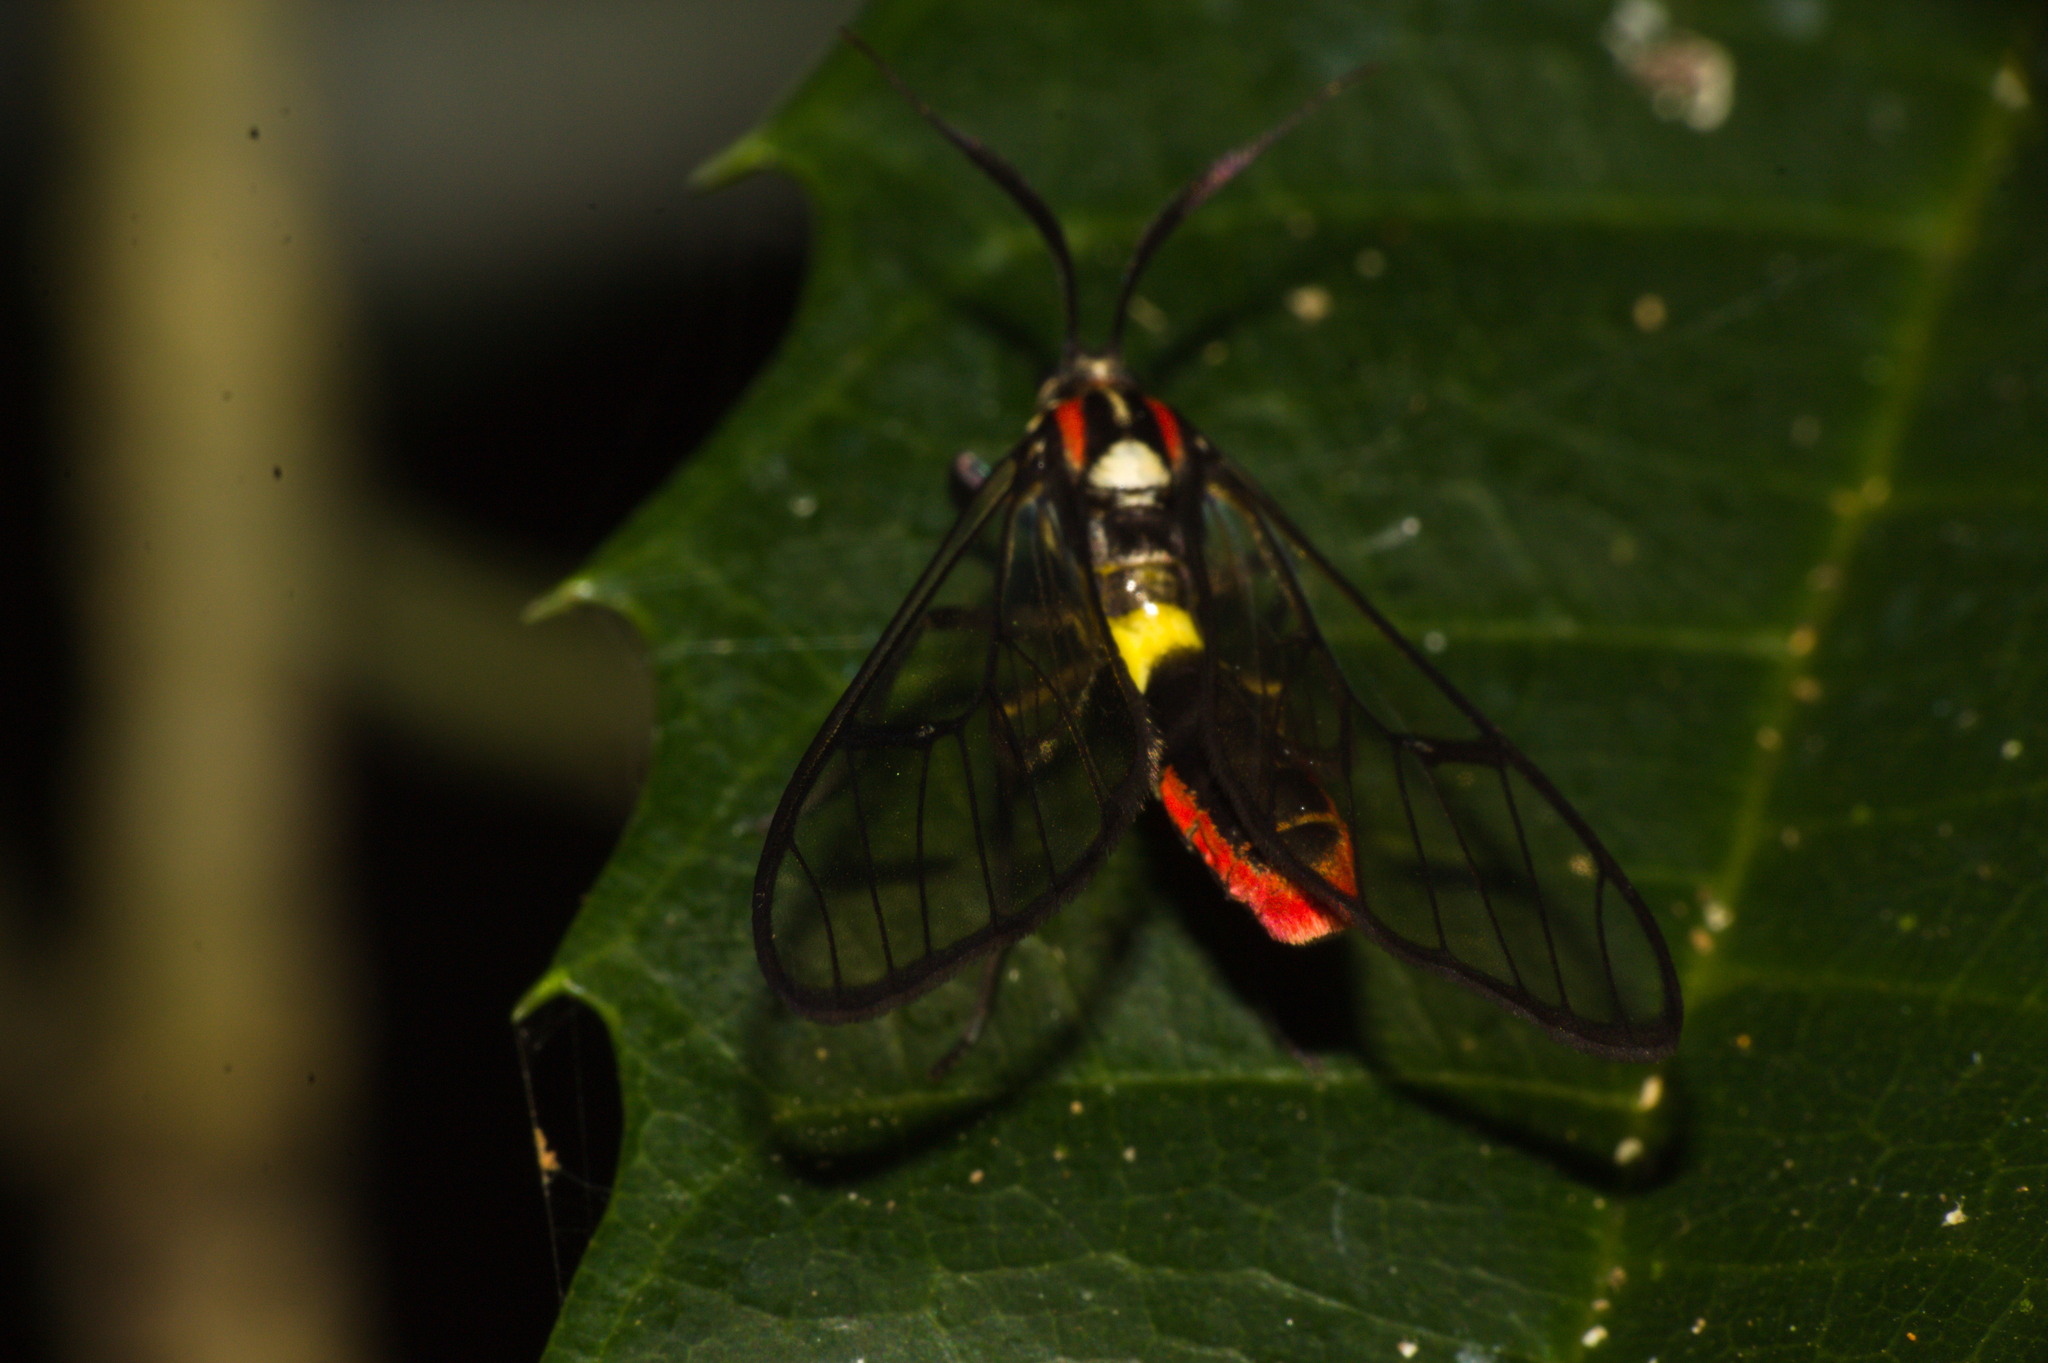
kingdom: Animalia
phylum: Arthropoda
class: Insecta
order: Lepidoptera
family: Erebidae
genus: Argyroeides
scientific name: Argyroeides braco
